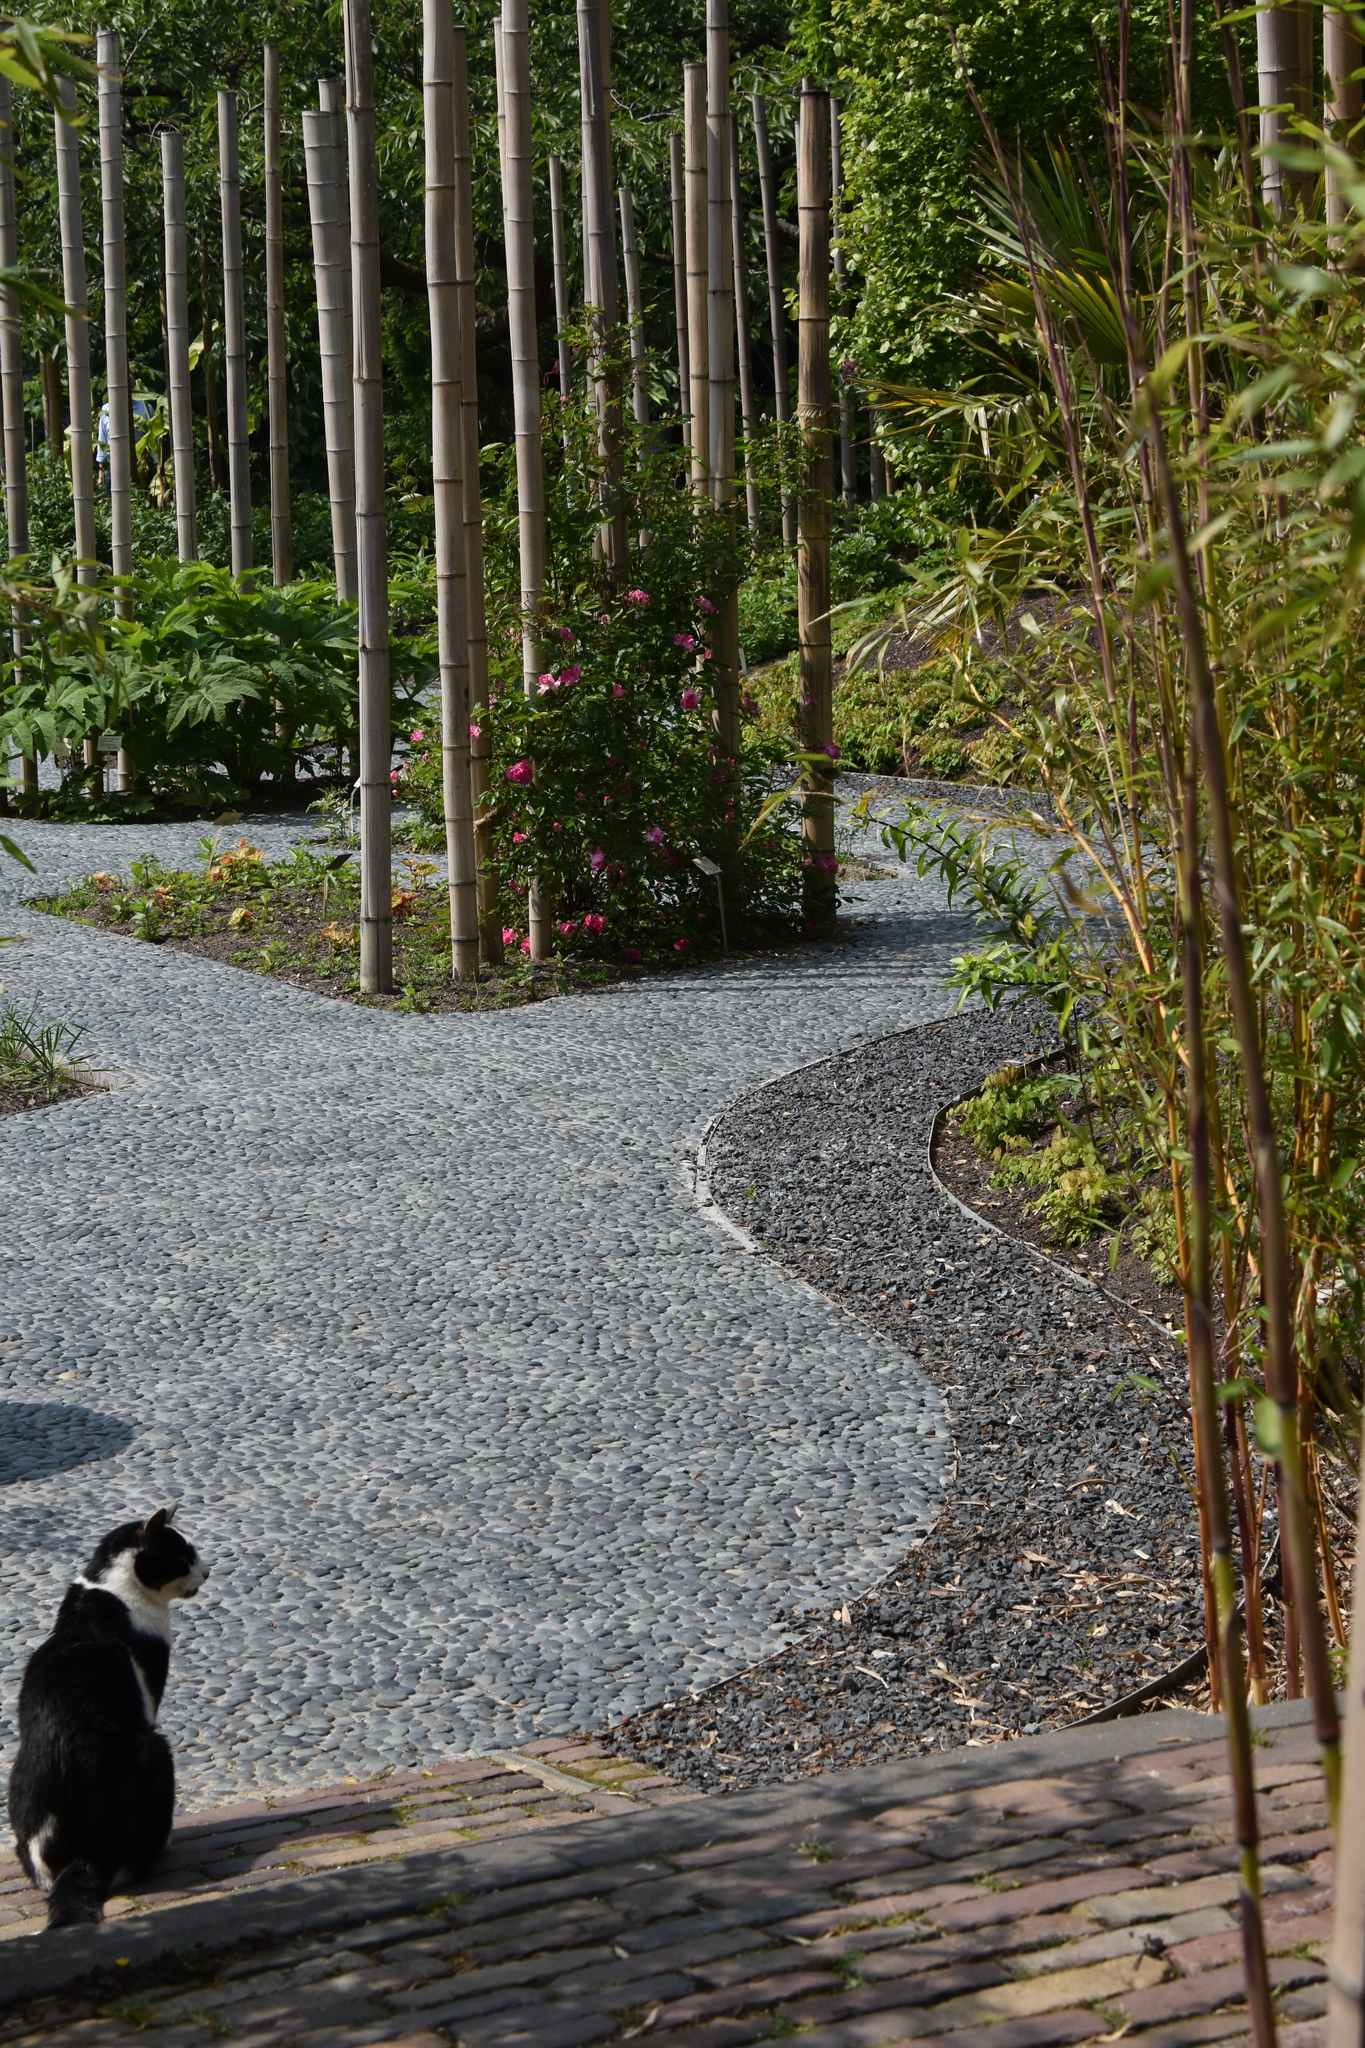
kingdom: Animalia
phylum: Chordata
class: Mammalia
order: Carnivora
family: Felidae
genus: Felis
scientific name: Felis catus
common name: Domestic cat
